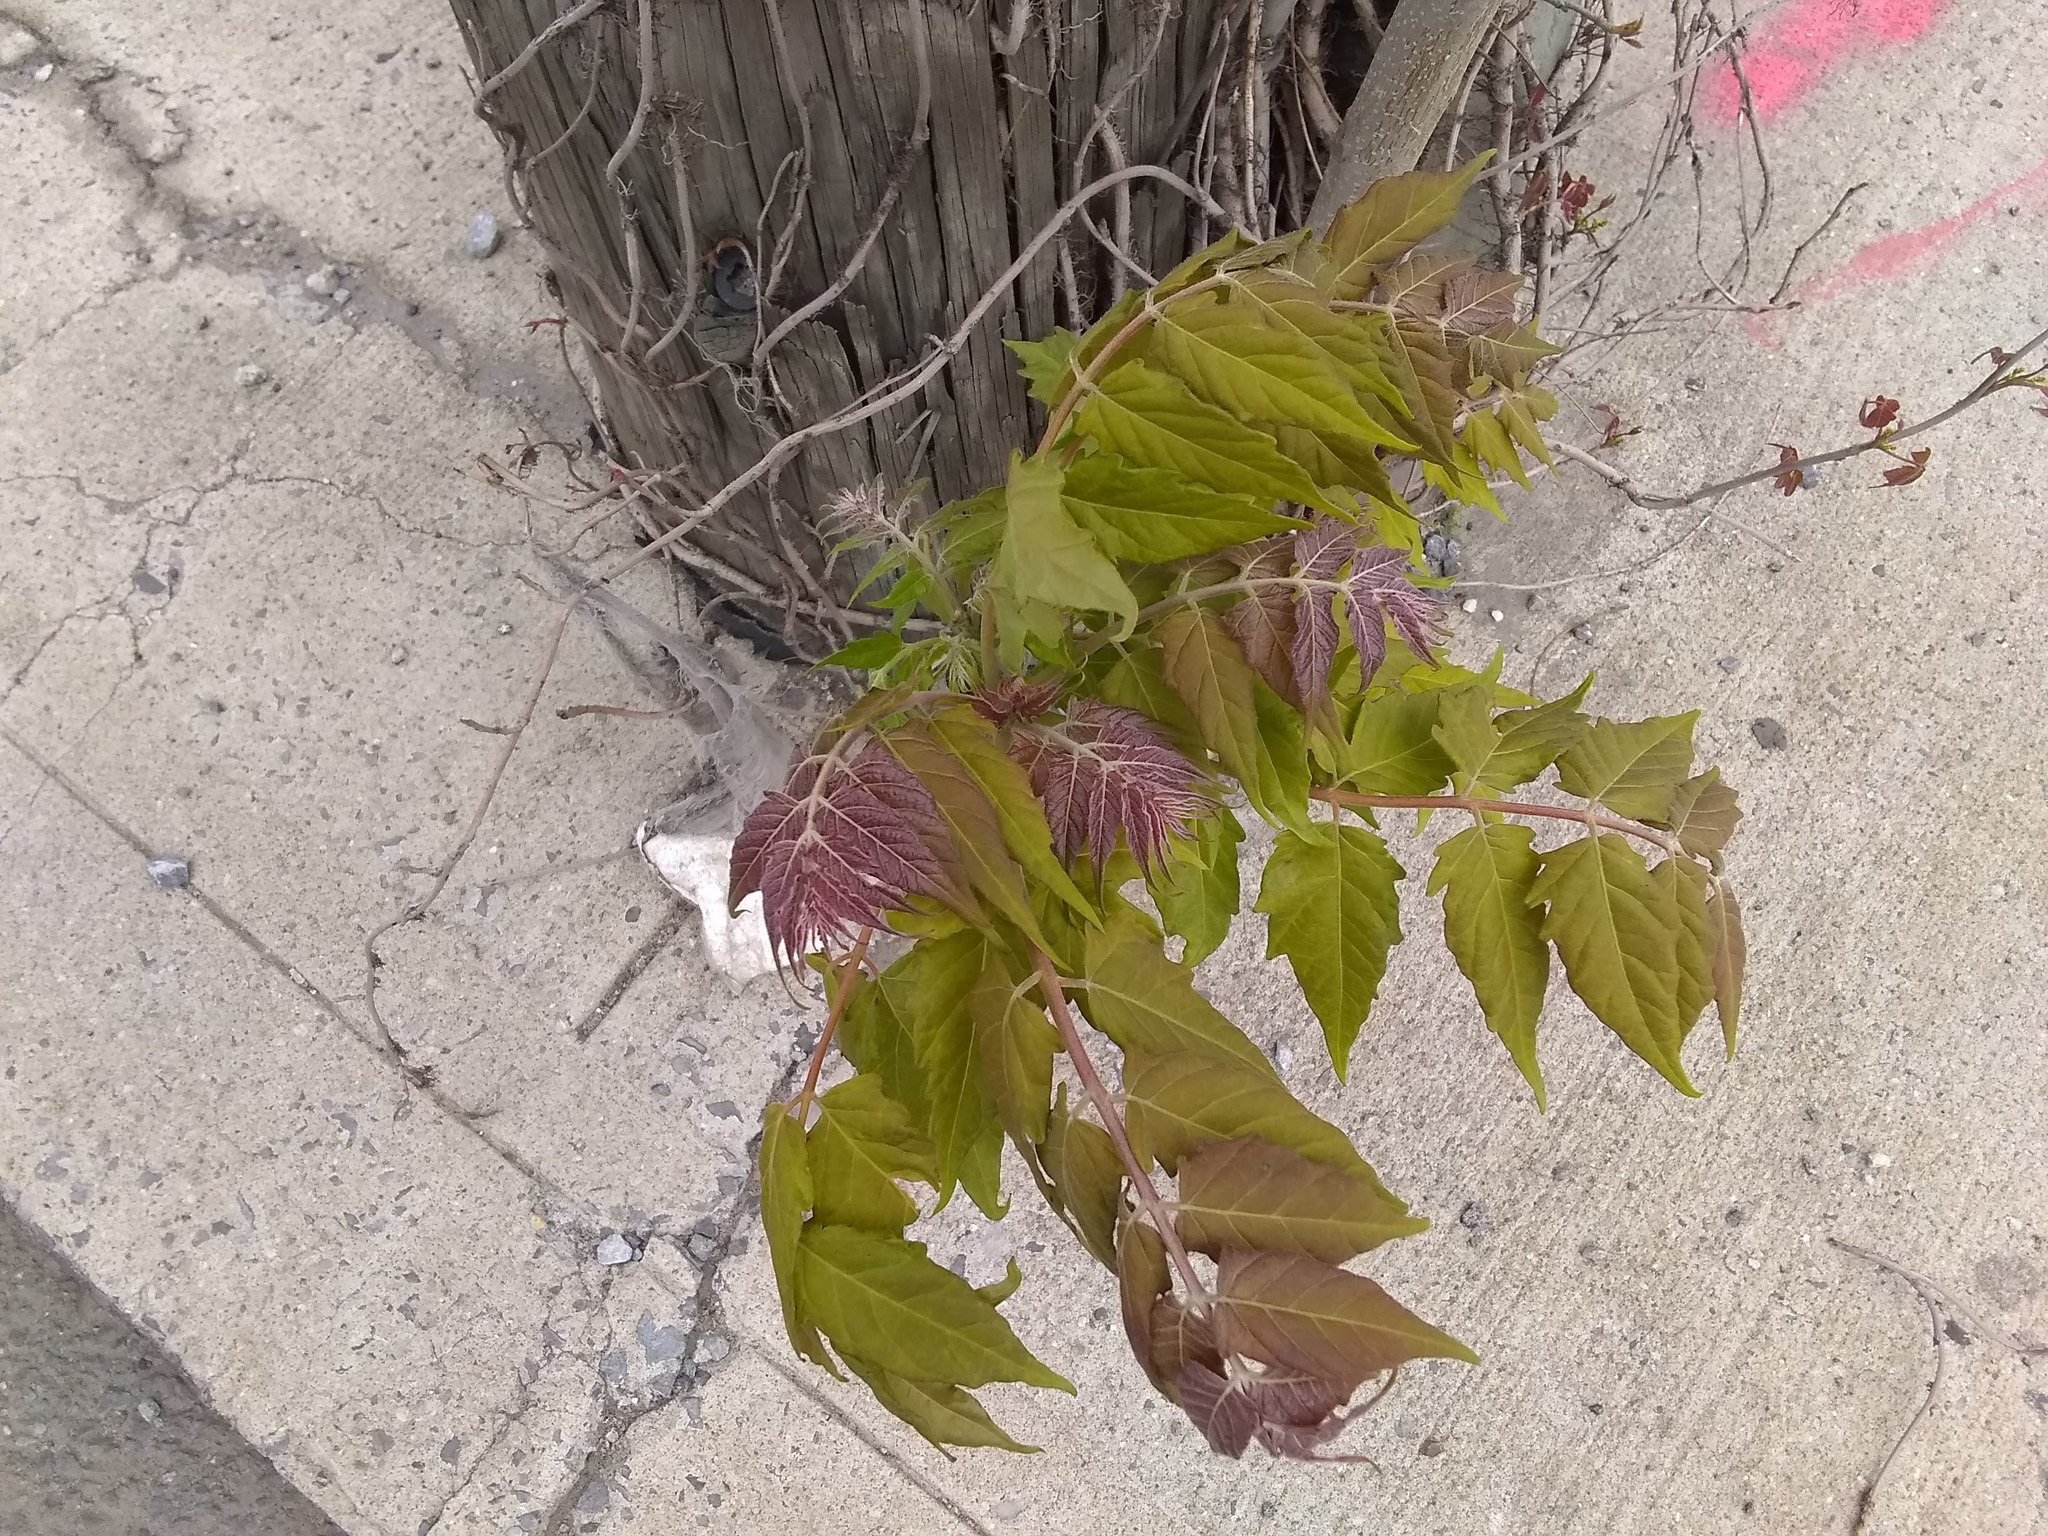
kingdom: Plantae
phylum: Tracheophyta
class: Magnoliopsida
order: Sapindales
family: Simaroubaceae
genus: Ailanthus
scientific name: Ailanthus altissima
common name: Tree-of-heaven
